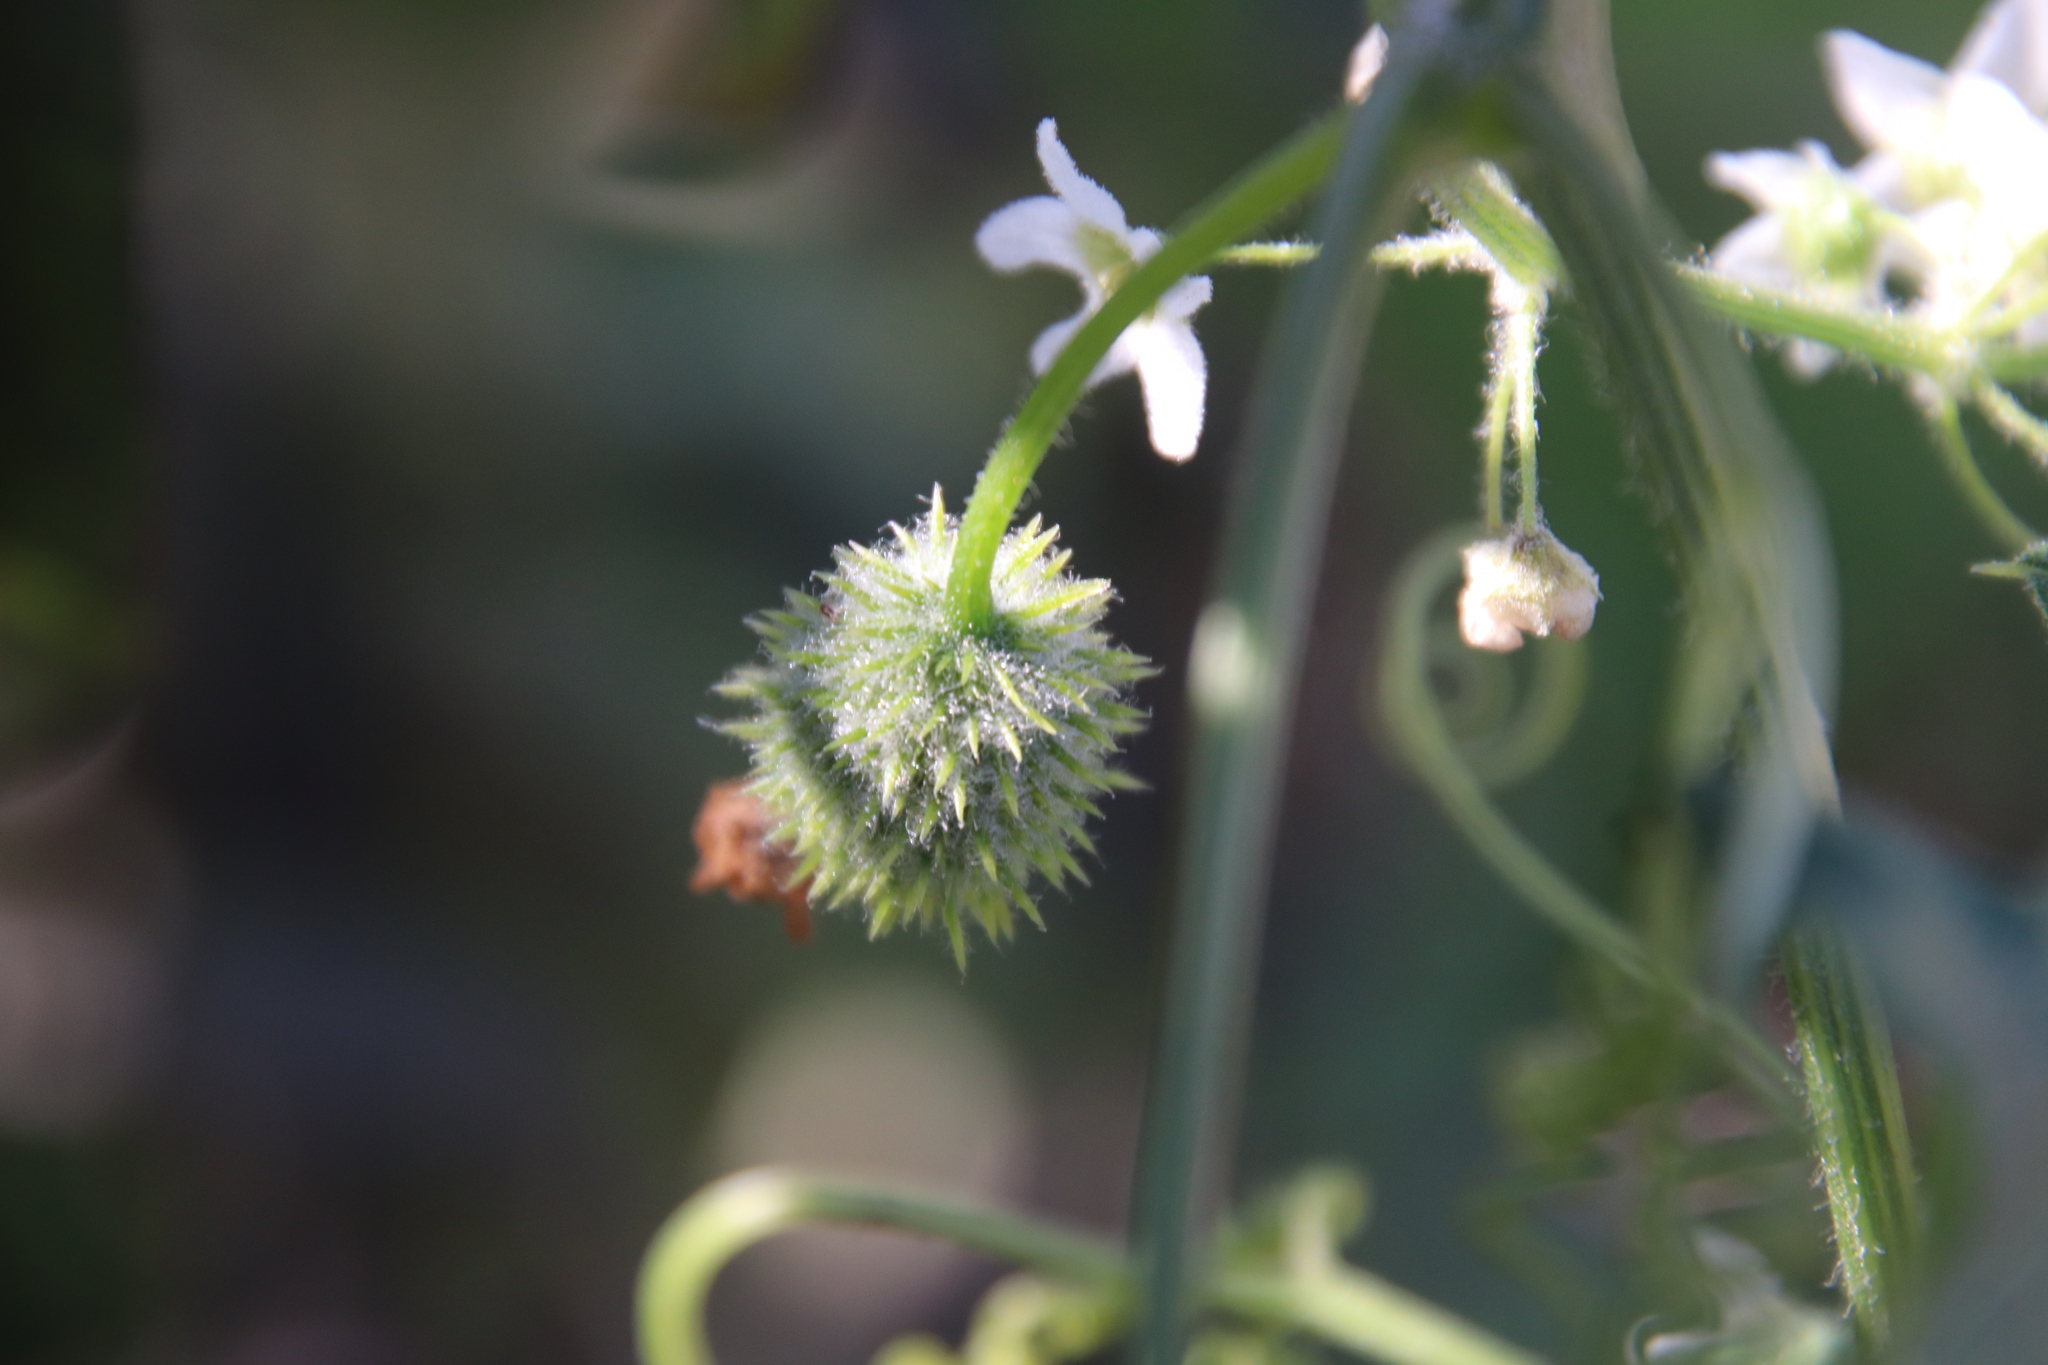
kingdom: Plantae
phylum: Tracheophyta
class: Magnoliopsida
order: Cucurbitales
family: Cucurbitaceae
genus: Marah
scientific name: Marah macrocarpa
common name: Cucamonga manroot
